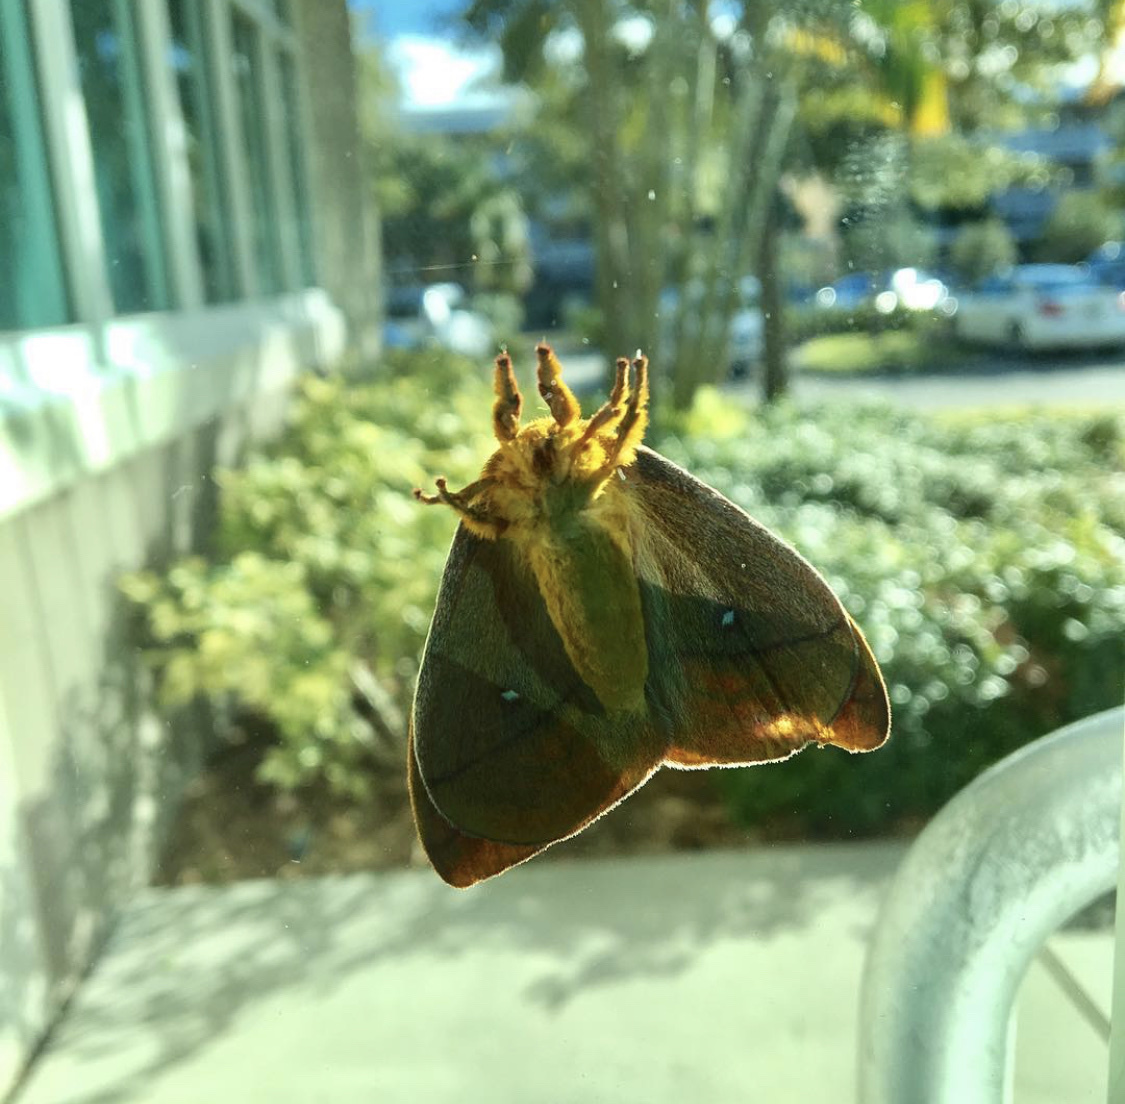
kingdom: Animalia
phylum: Arthropoda
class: Insecta
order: Lepidoptera
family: Saturniidae
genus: Automeris
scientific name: Automeris io
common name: Io moth
